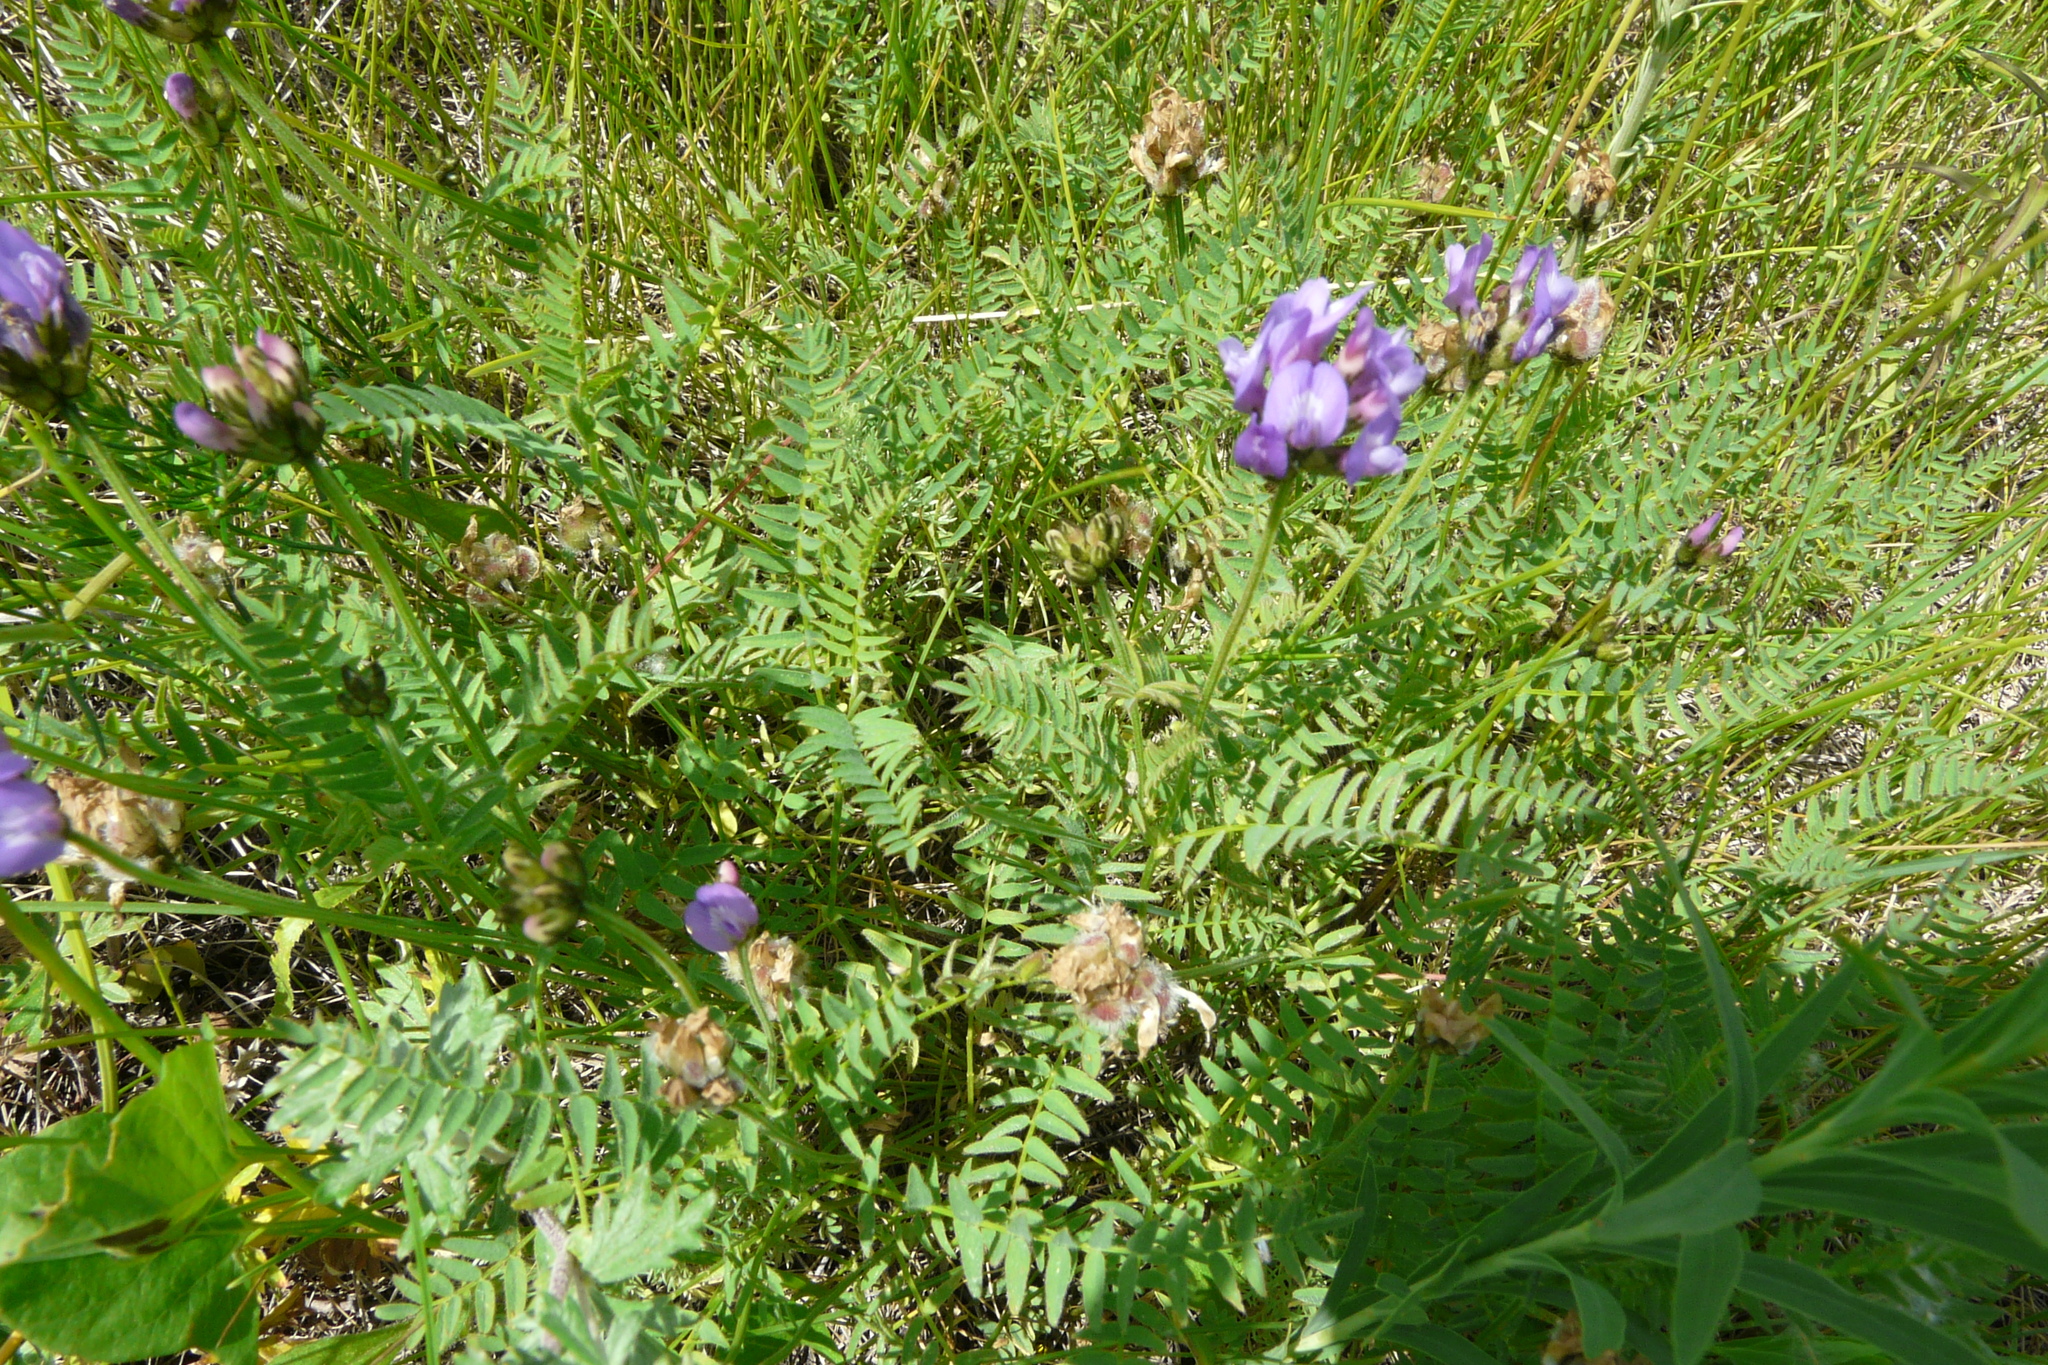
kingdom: Plantae
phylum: Tracheophyta
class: Magnoliopsida
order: Fabales
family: Fabaceae
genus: Astragalus
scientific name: Astragalus danicus
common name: Purple milk-vetch
